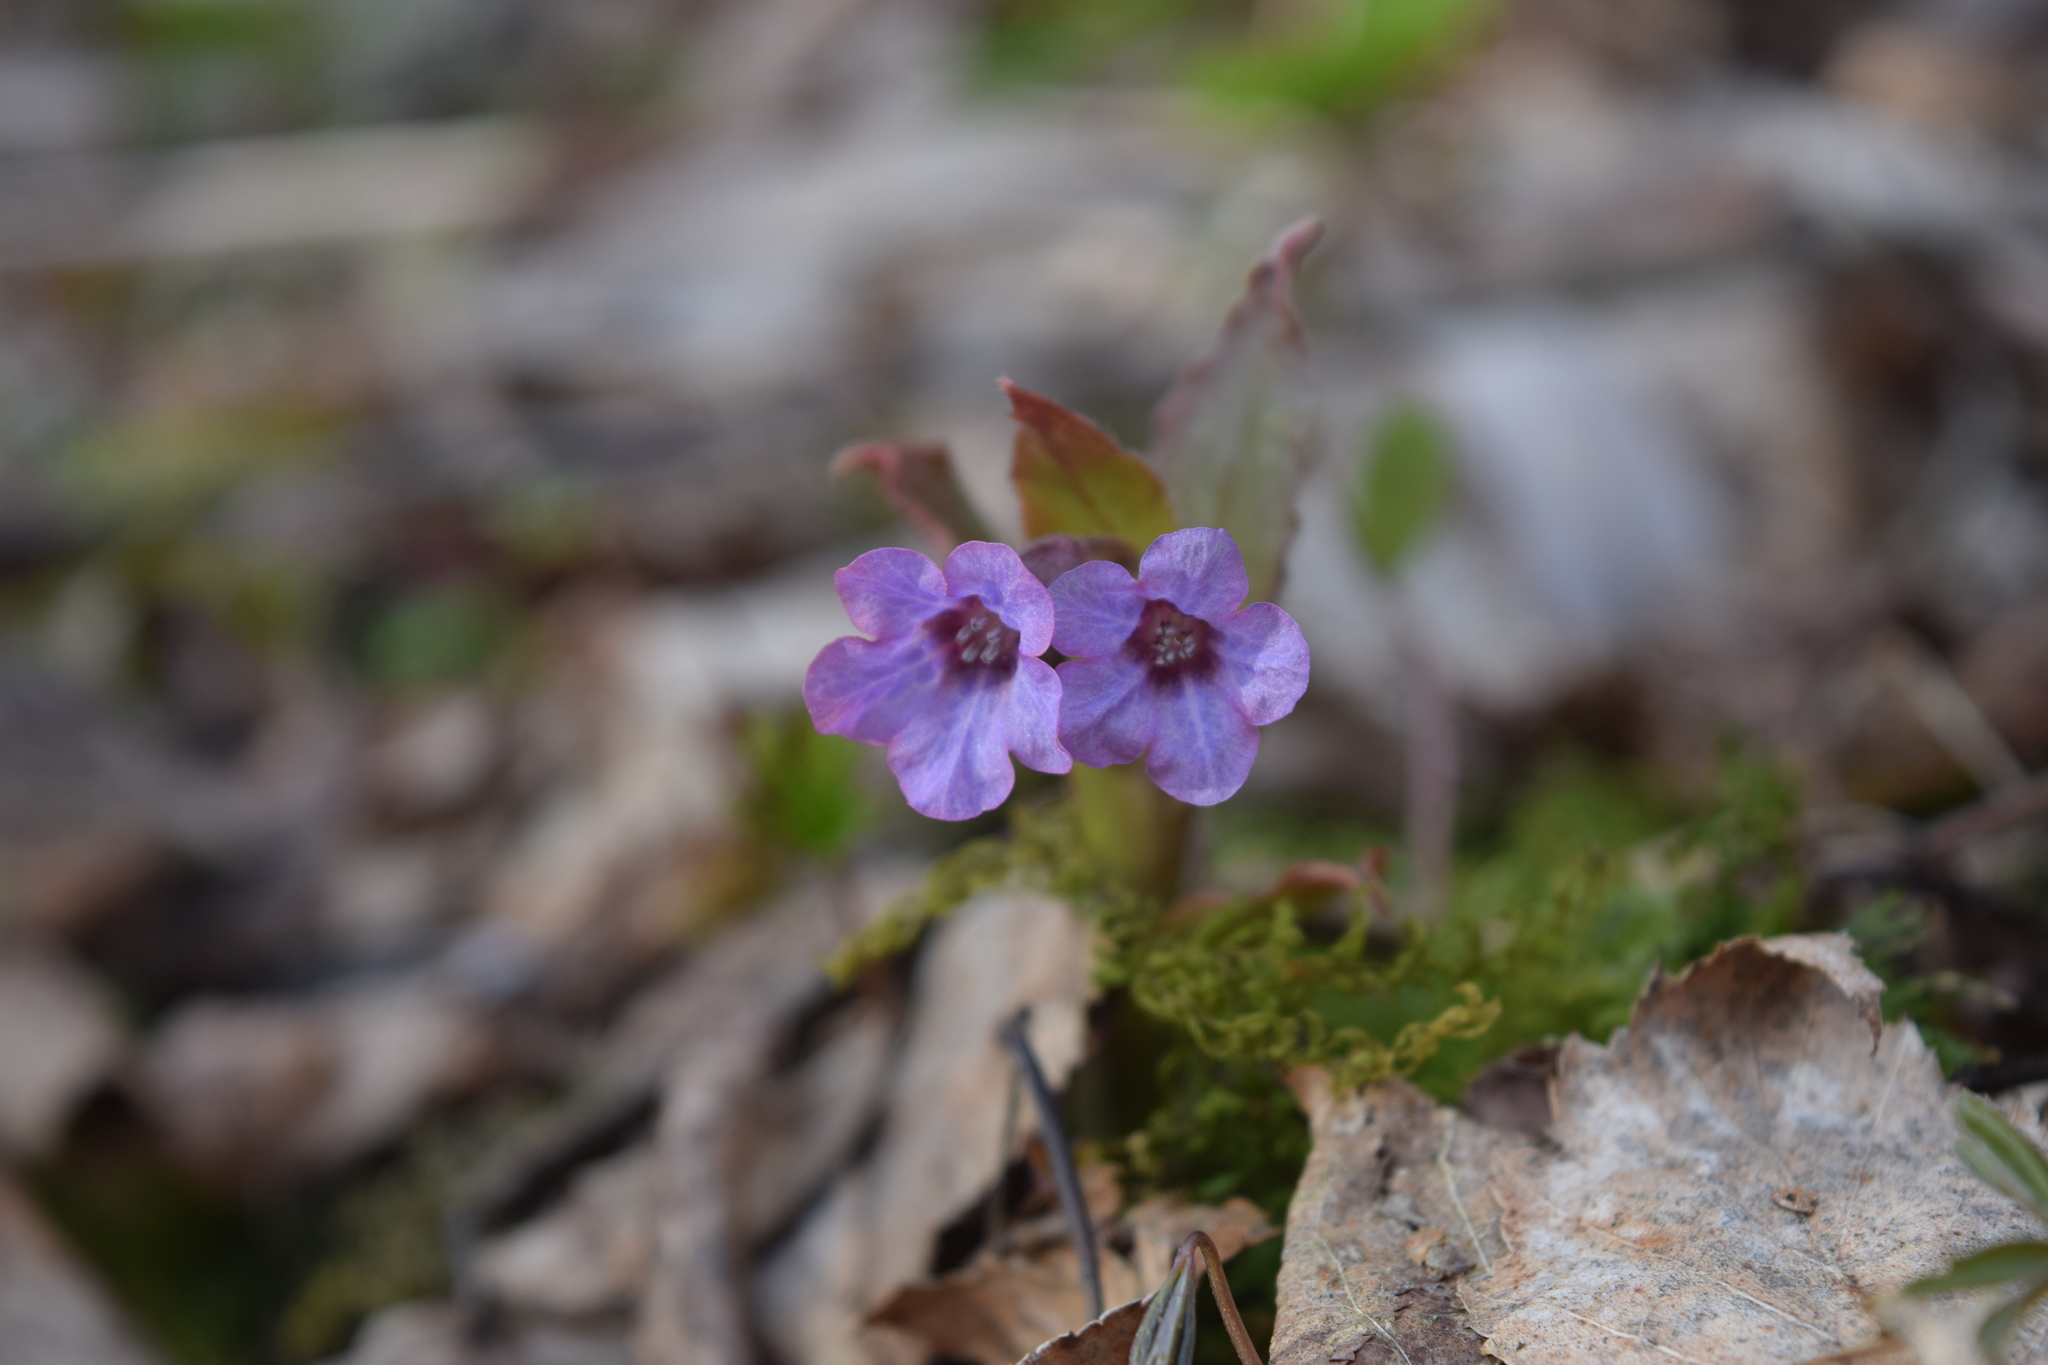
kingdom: Plantae
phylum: Tracheophyta
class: Magnoliopsida
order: Boraginales
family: Boraginaceae
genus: Pulmonaria
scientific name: Pulmonaria obscura
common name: Suffolk lungwort
